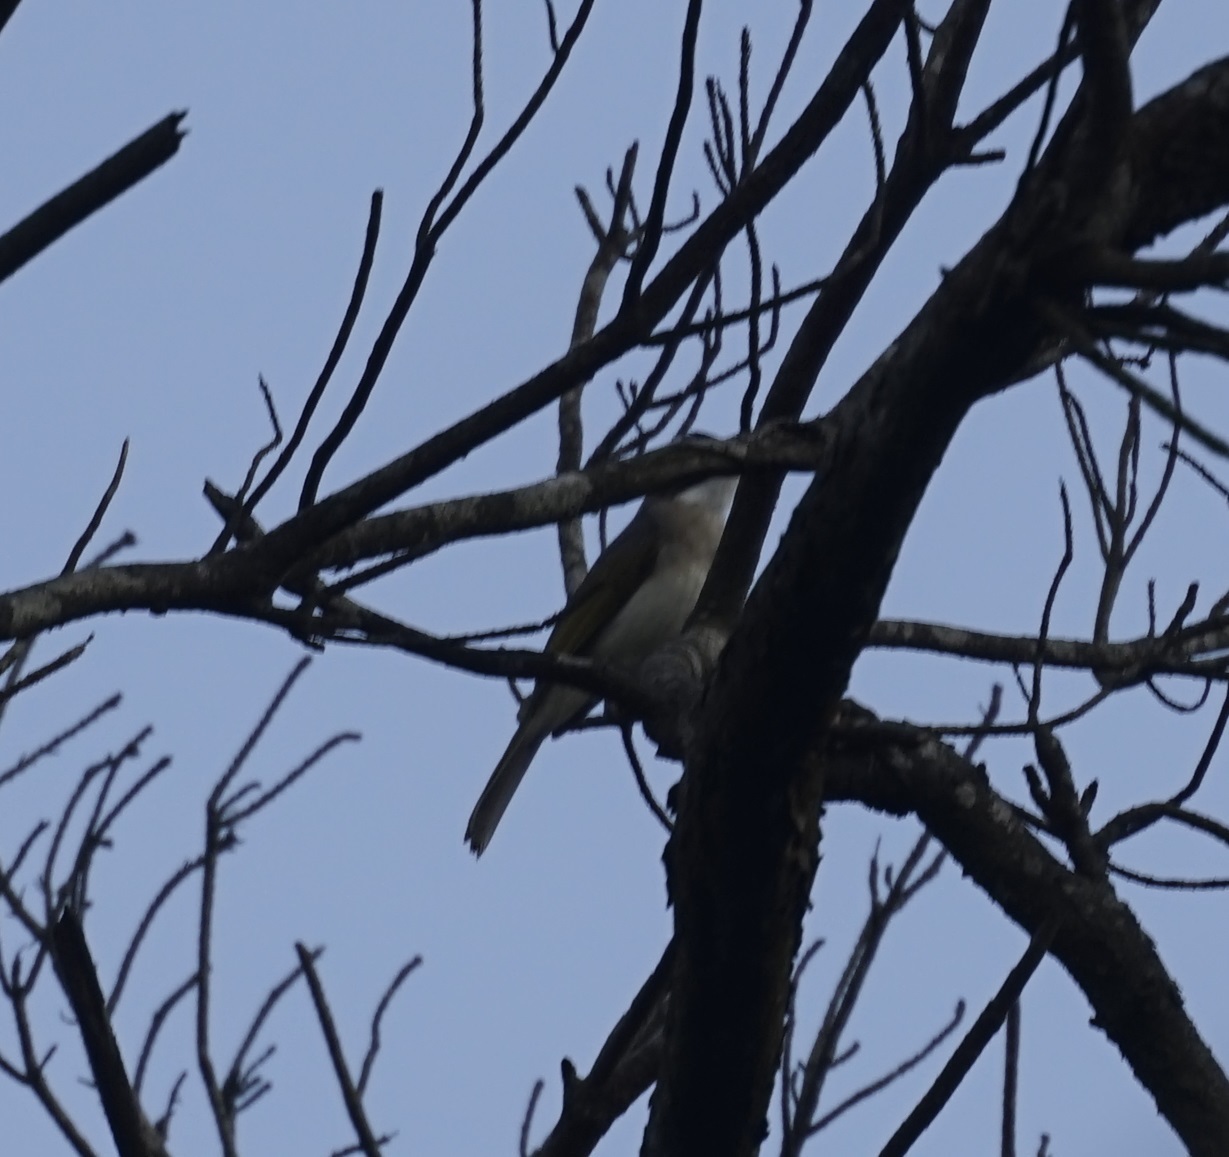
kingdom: Animalia
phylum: Chordata
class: Aves
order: Passeriformes
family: Pycnonotidae
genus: Pycnonotus
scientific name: Pycnonotus sinensis
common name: Light-vented bulbul
